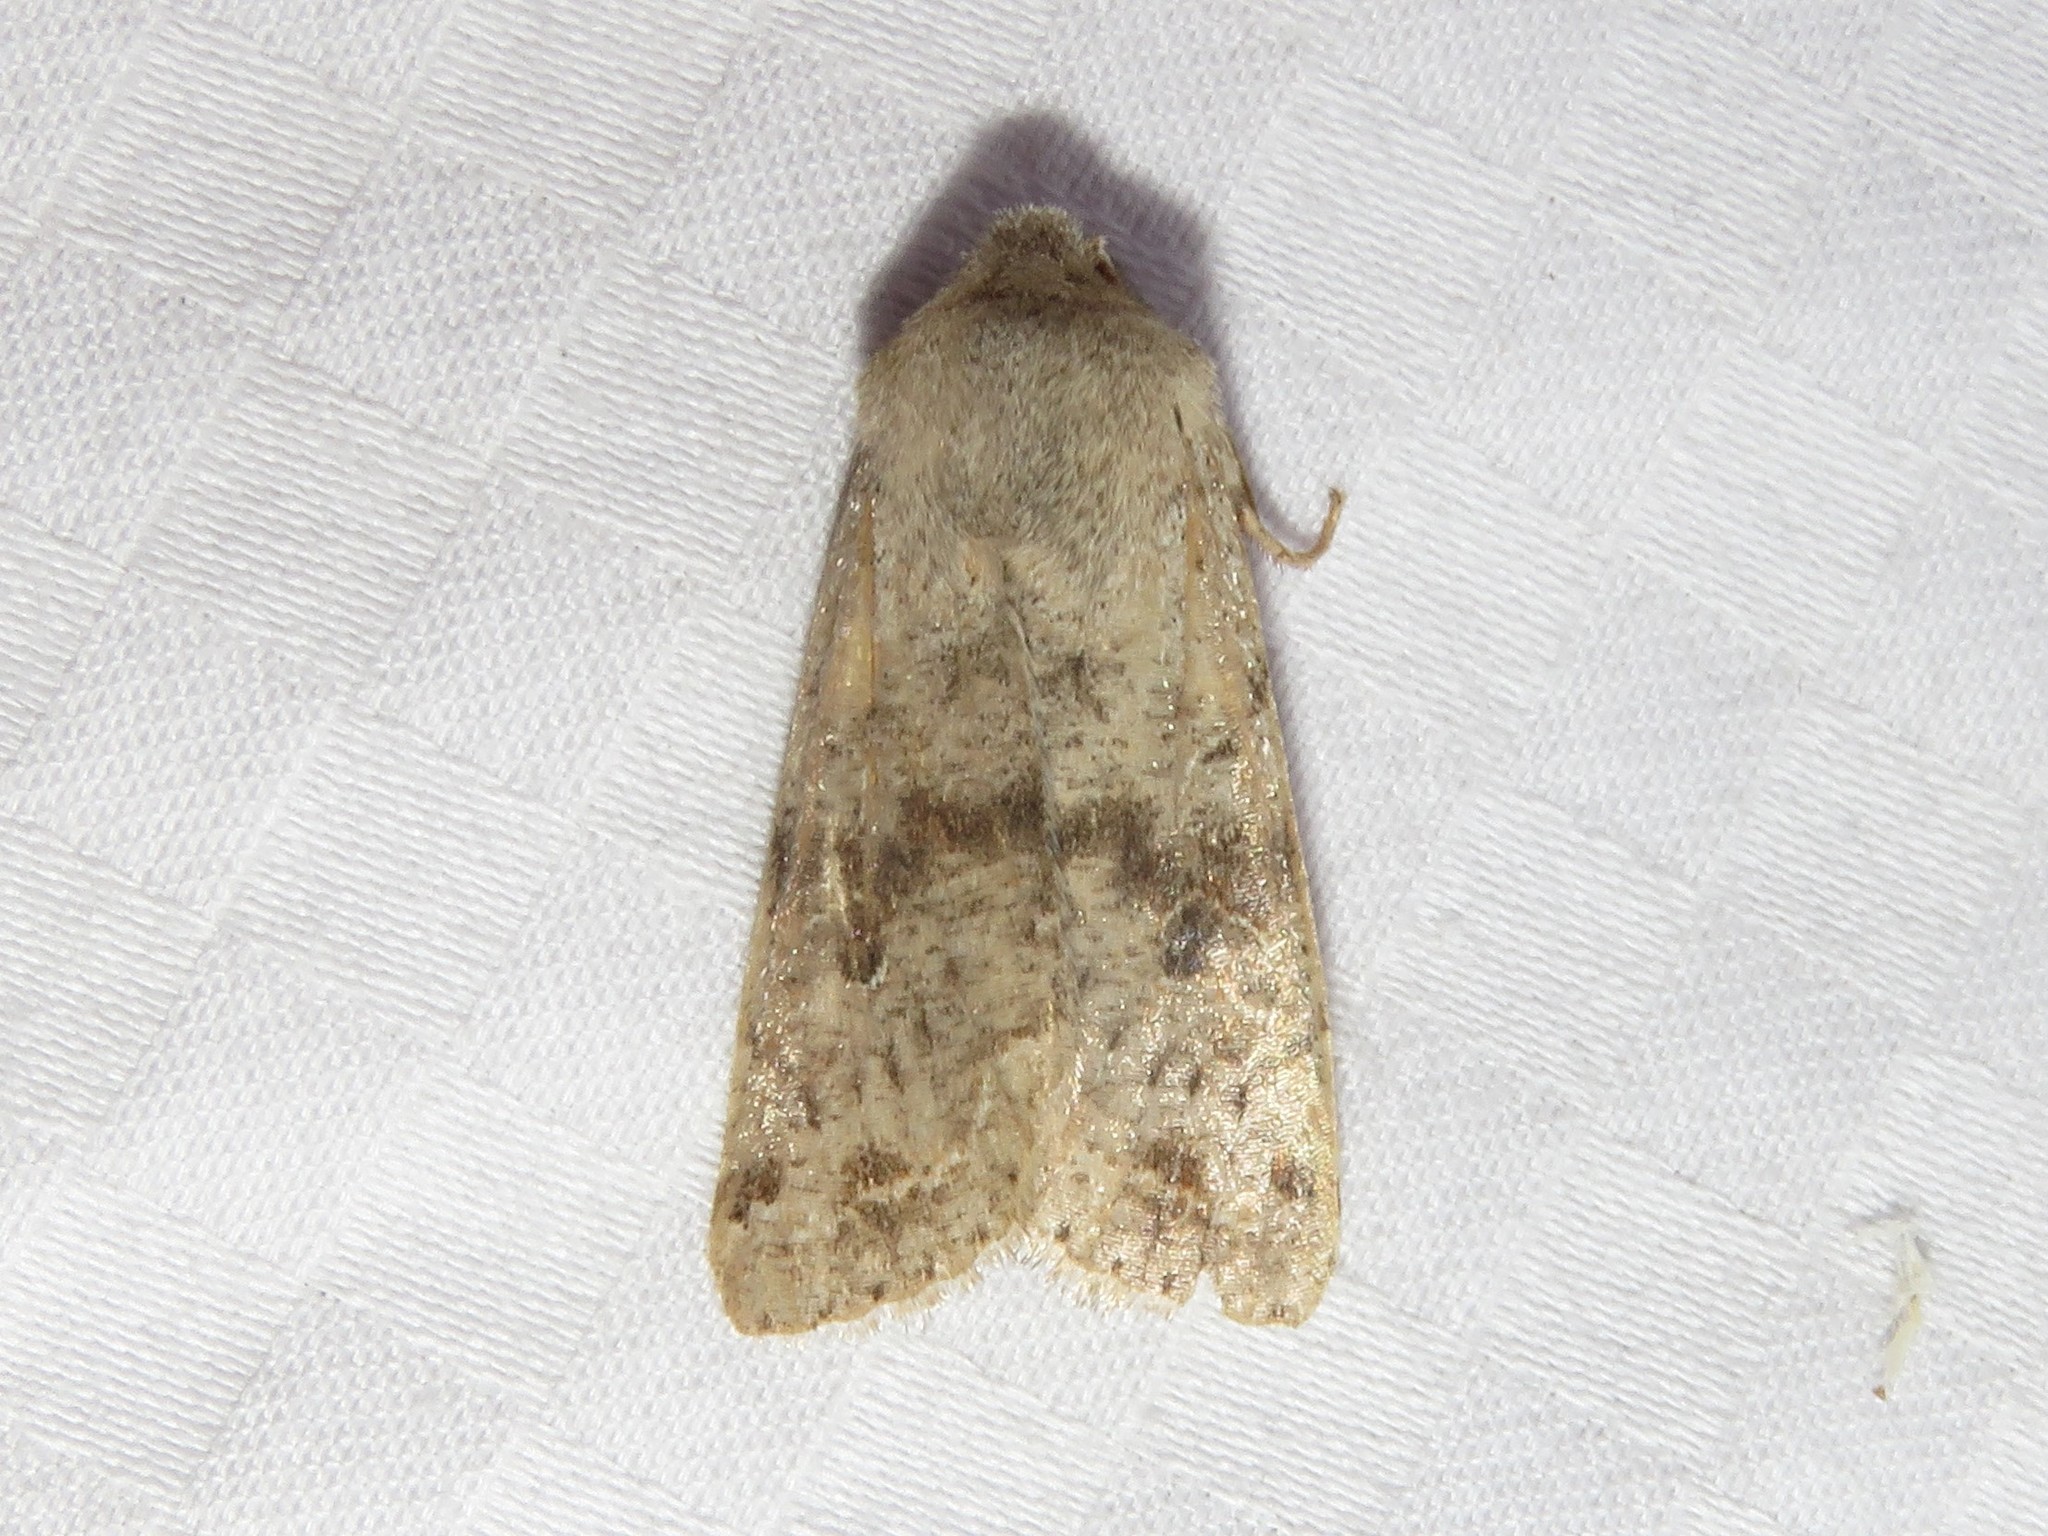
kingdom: Animalia
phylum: Arthropoda
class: Insecta
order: Lepidoptera
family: Noctuidae
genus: Orthosia
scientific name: Orthosia hibisci
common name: Green fruitworm
